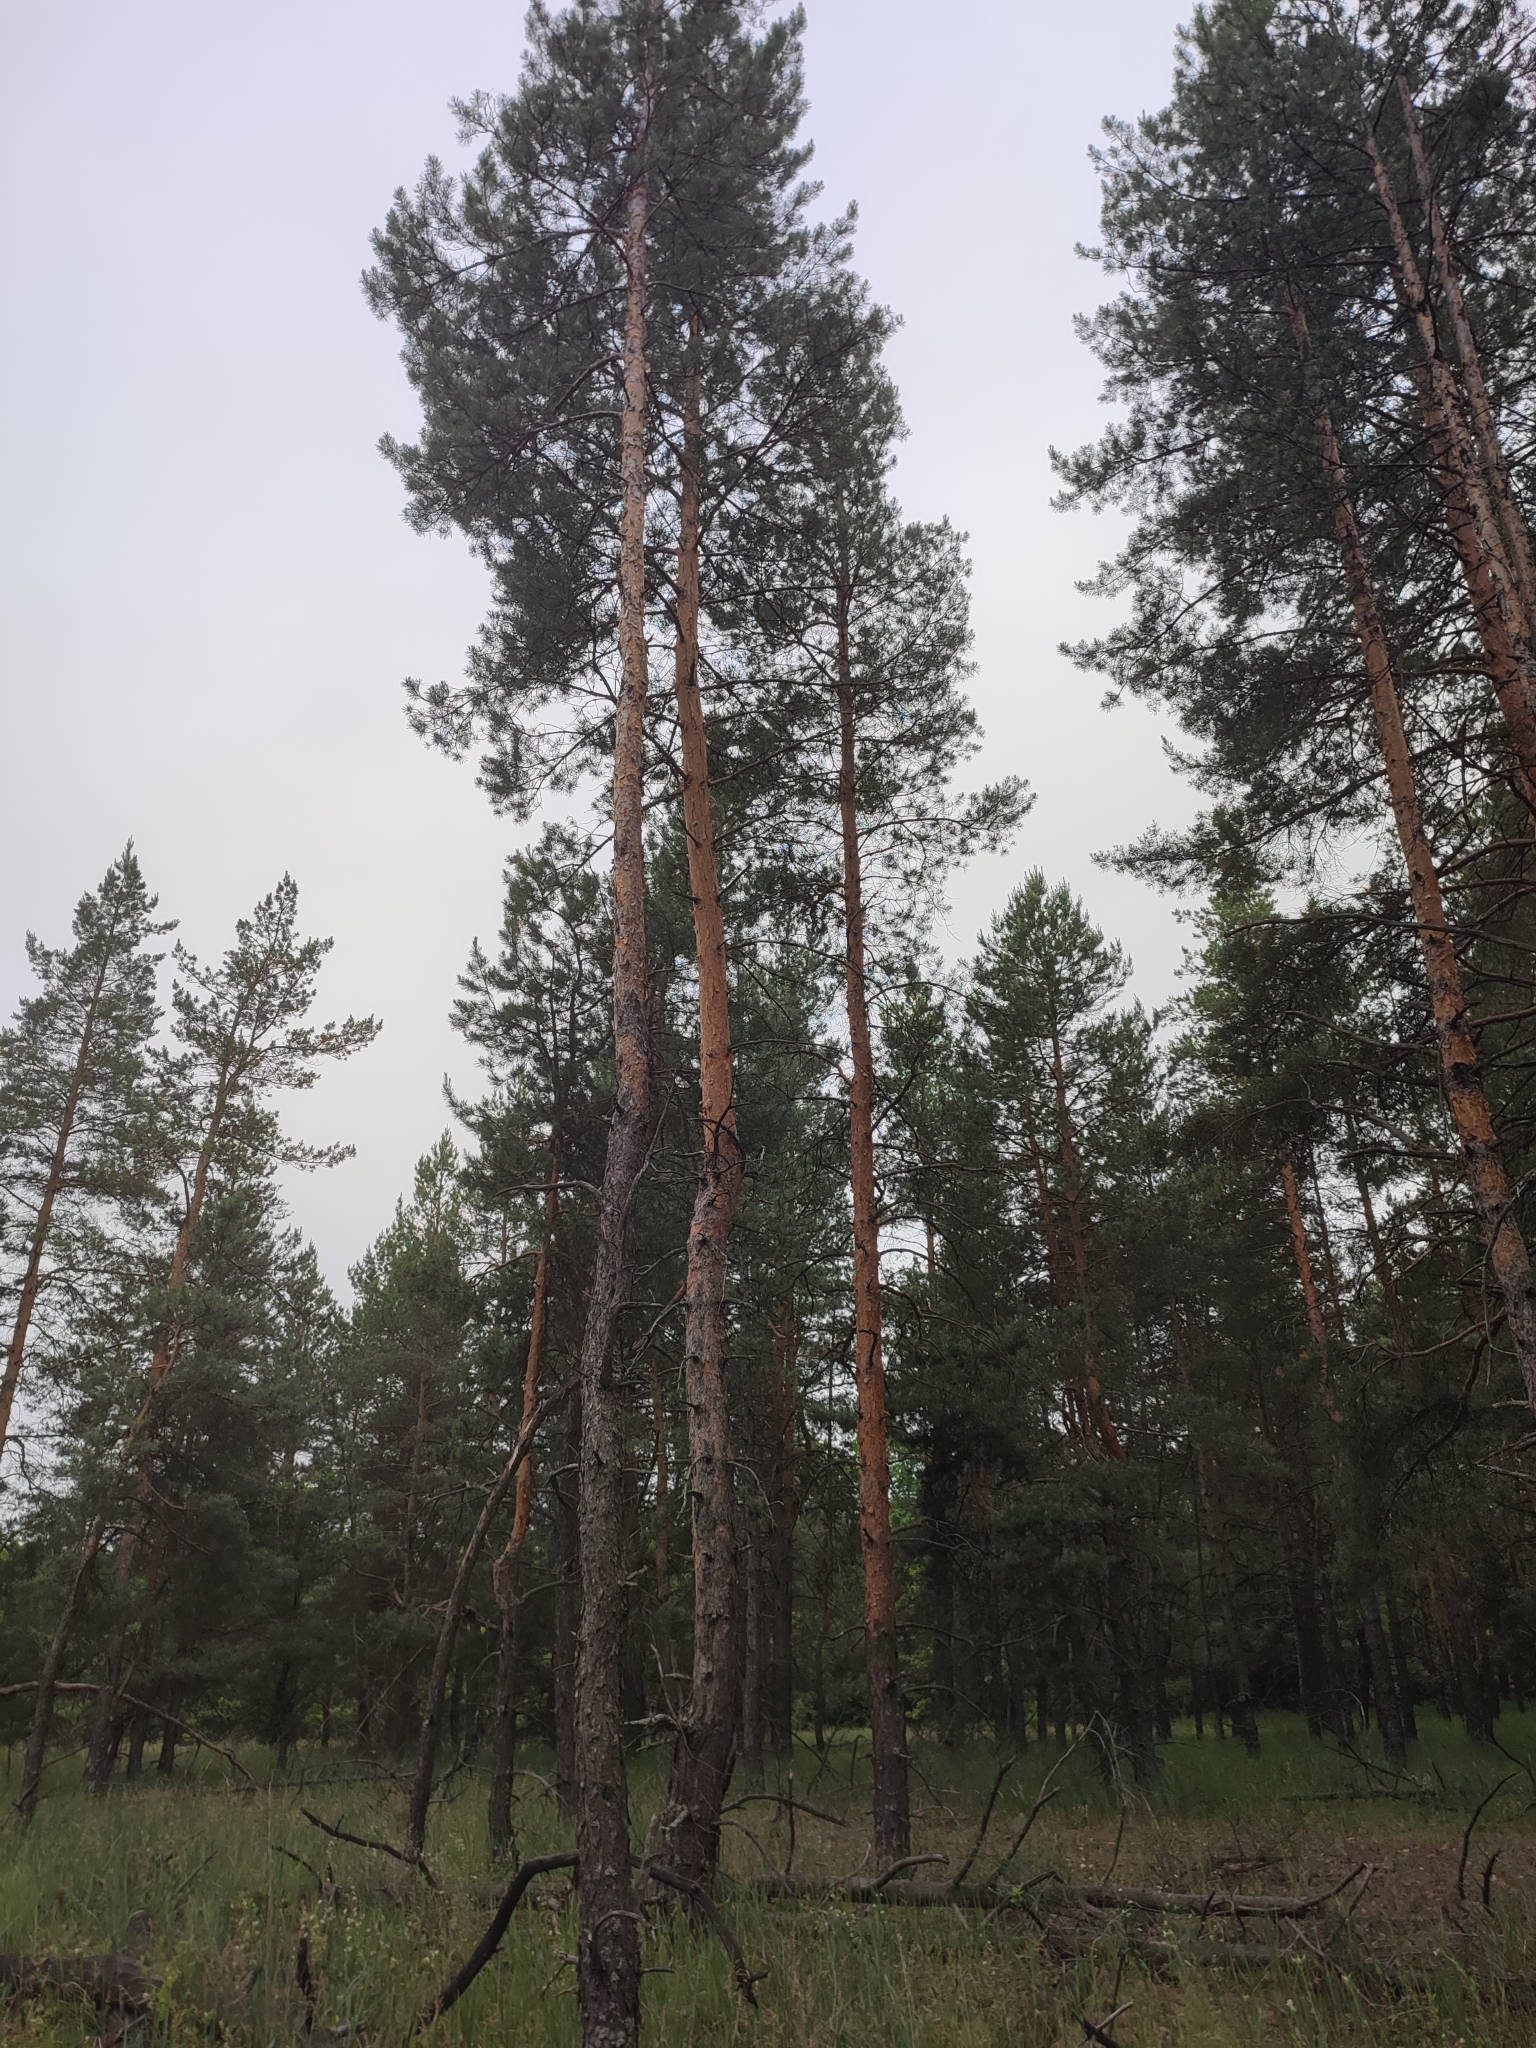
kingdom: Plantae
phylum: Tracheophyta
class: Pinopsida
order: Pinales
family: Pinaceae
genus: Pinus
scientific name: Pinus sylvestris
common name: Scots pine
